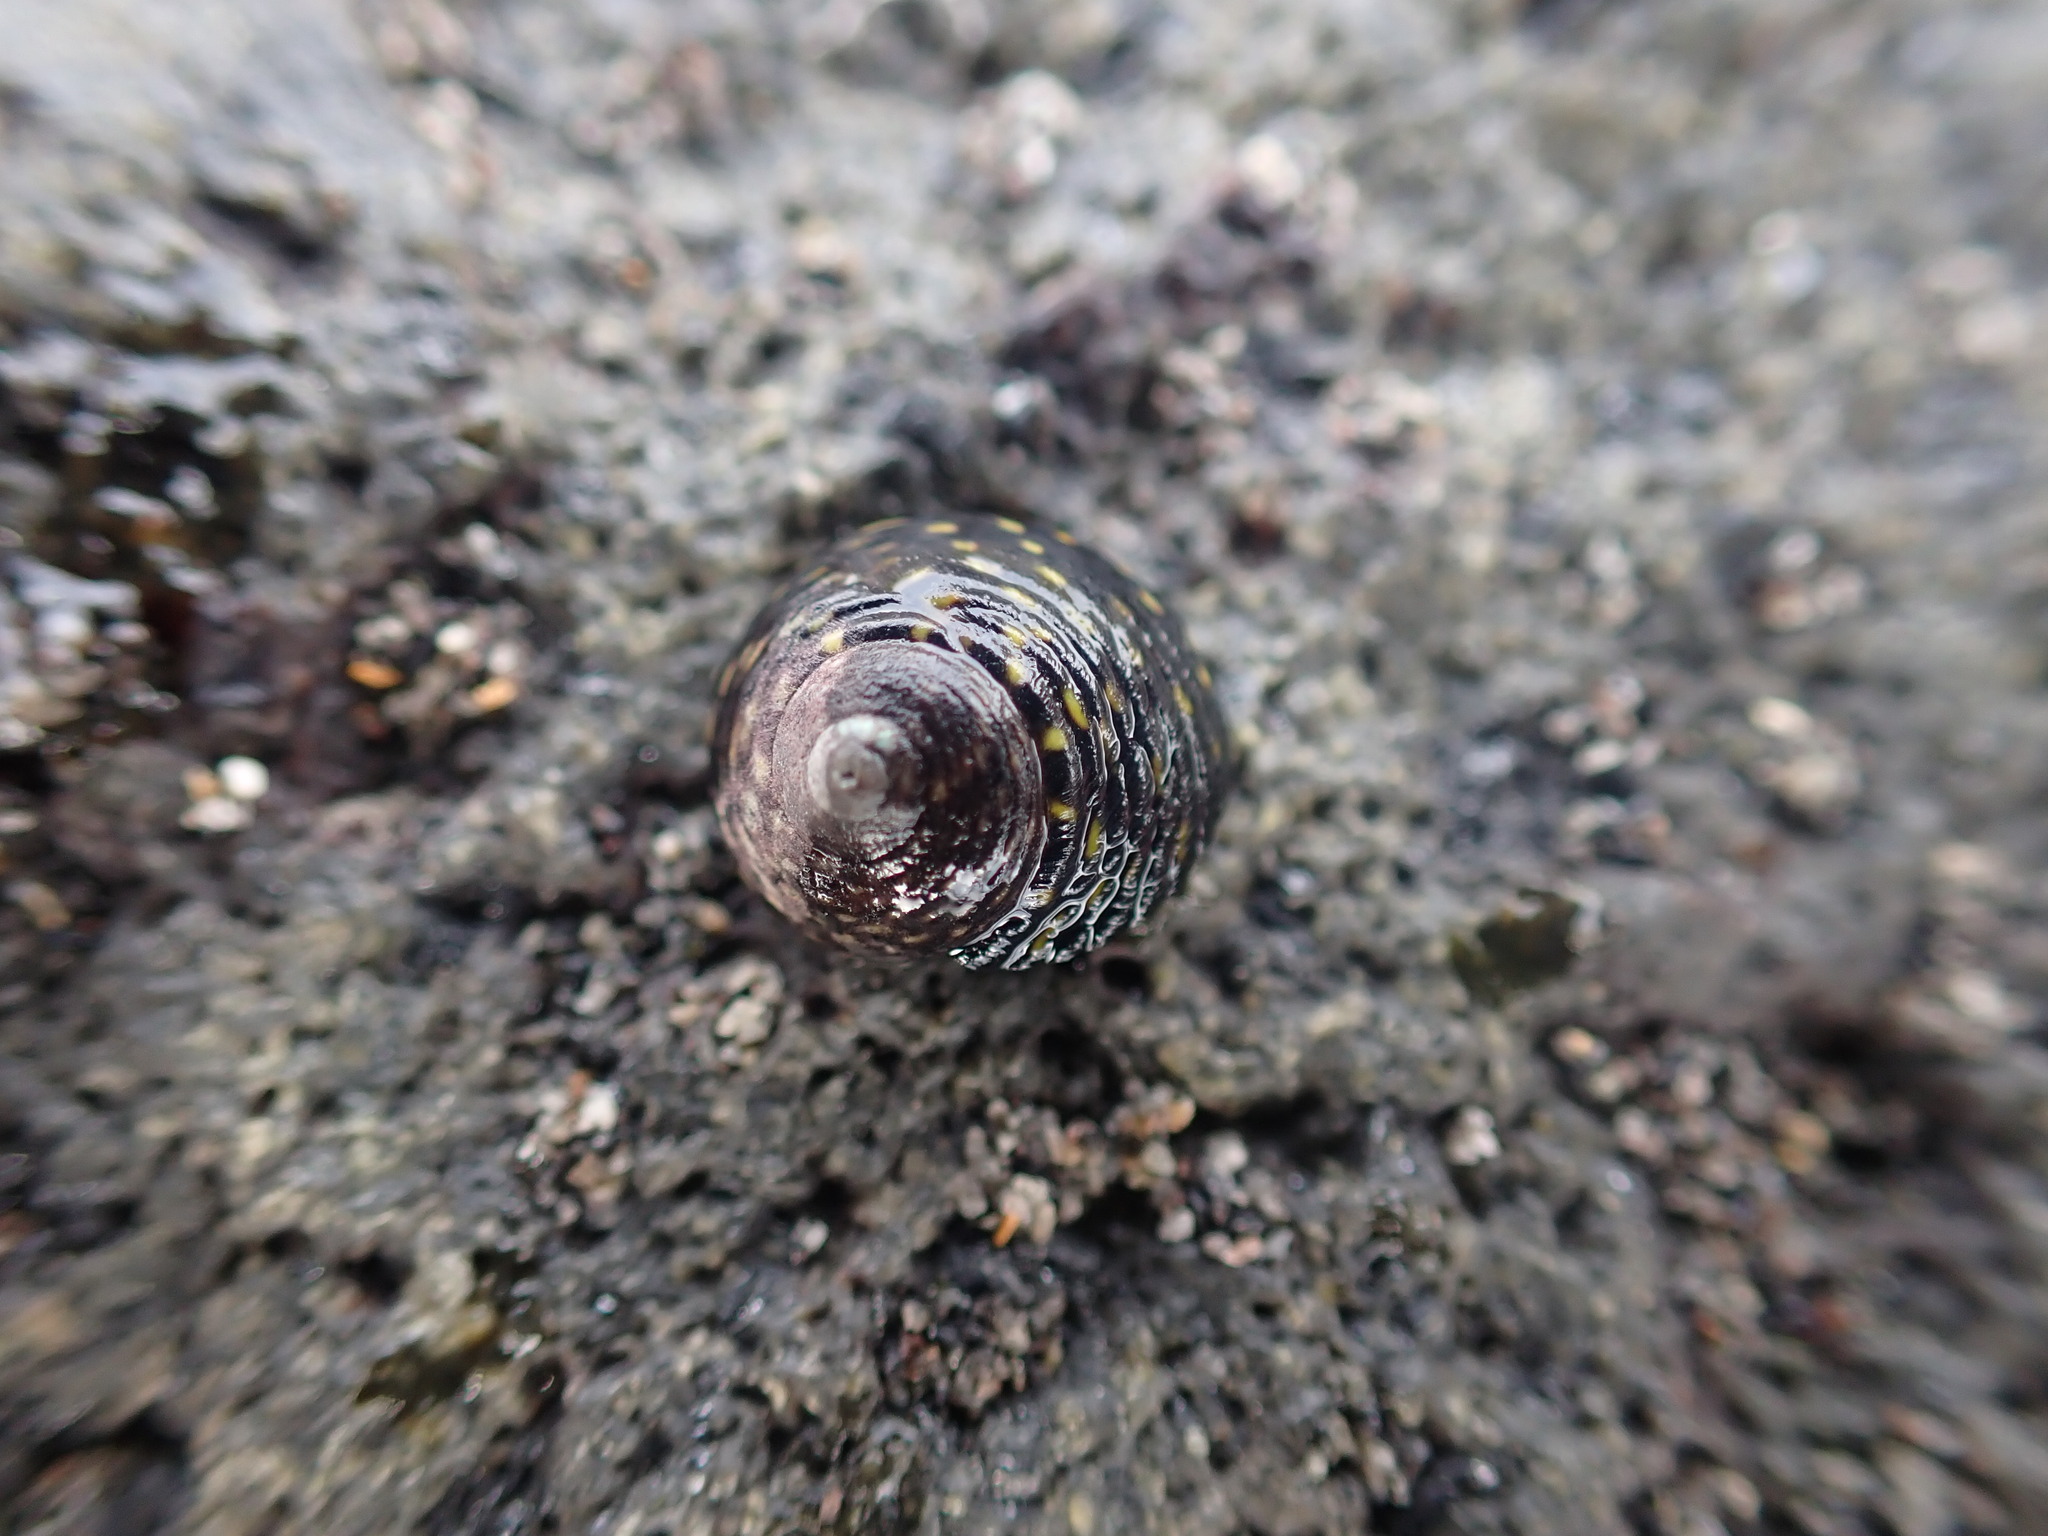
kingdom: Animalia
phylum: Mollusca
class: Gastropoda
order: Trochida
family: Trochidae
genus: Diloma
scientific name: Diloma aridum
